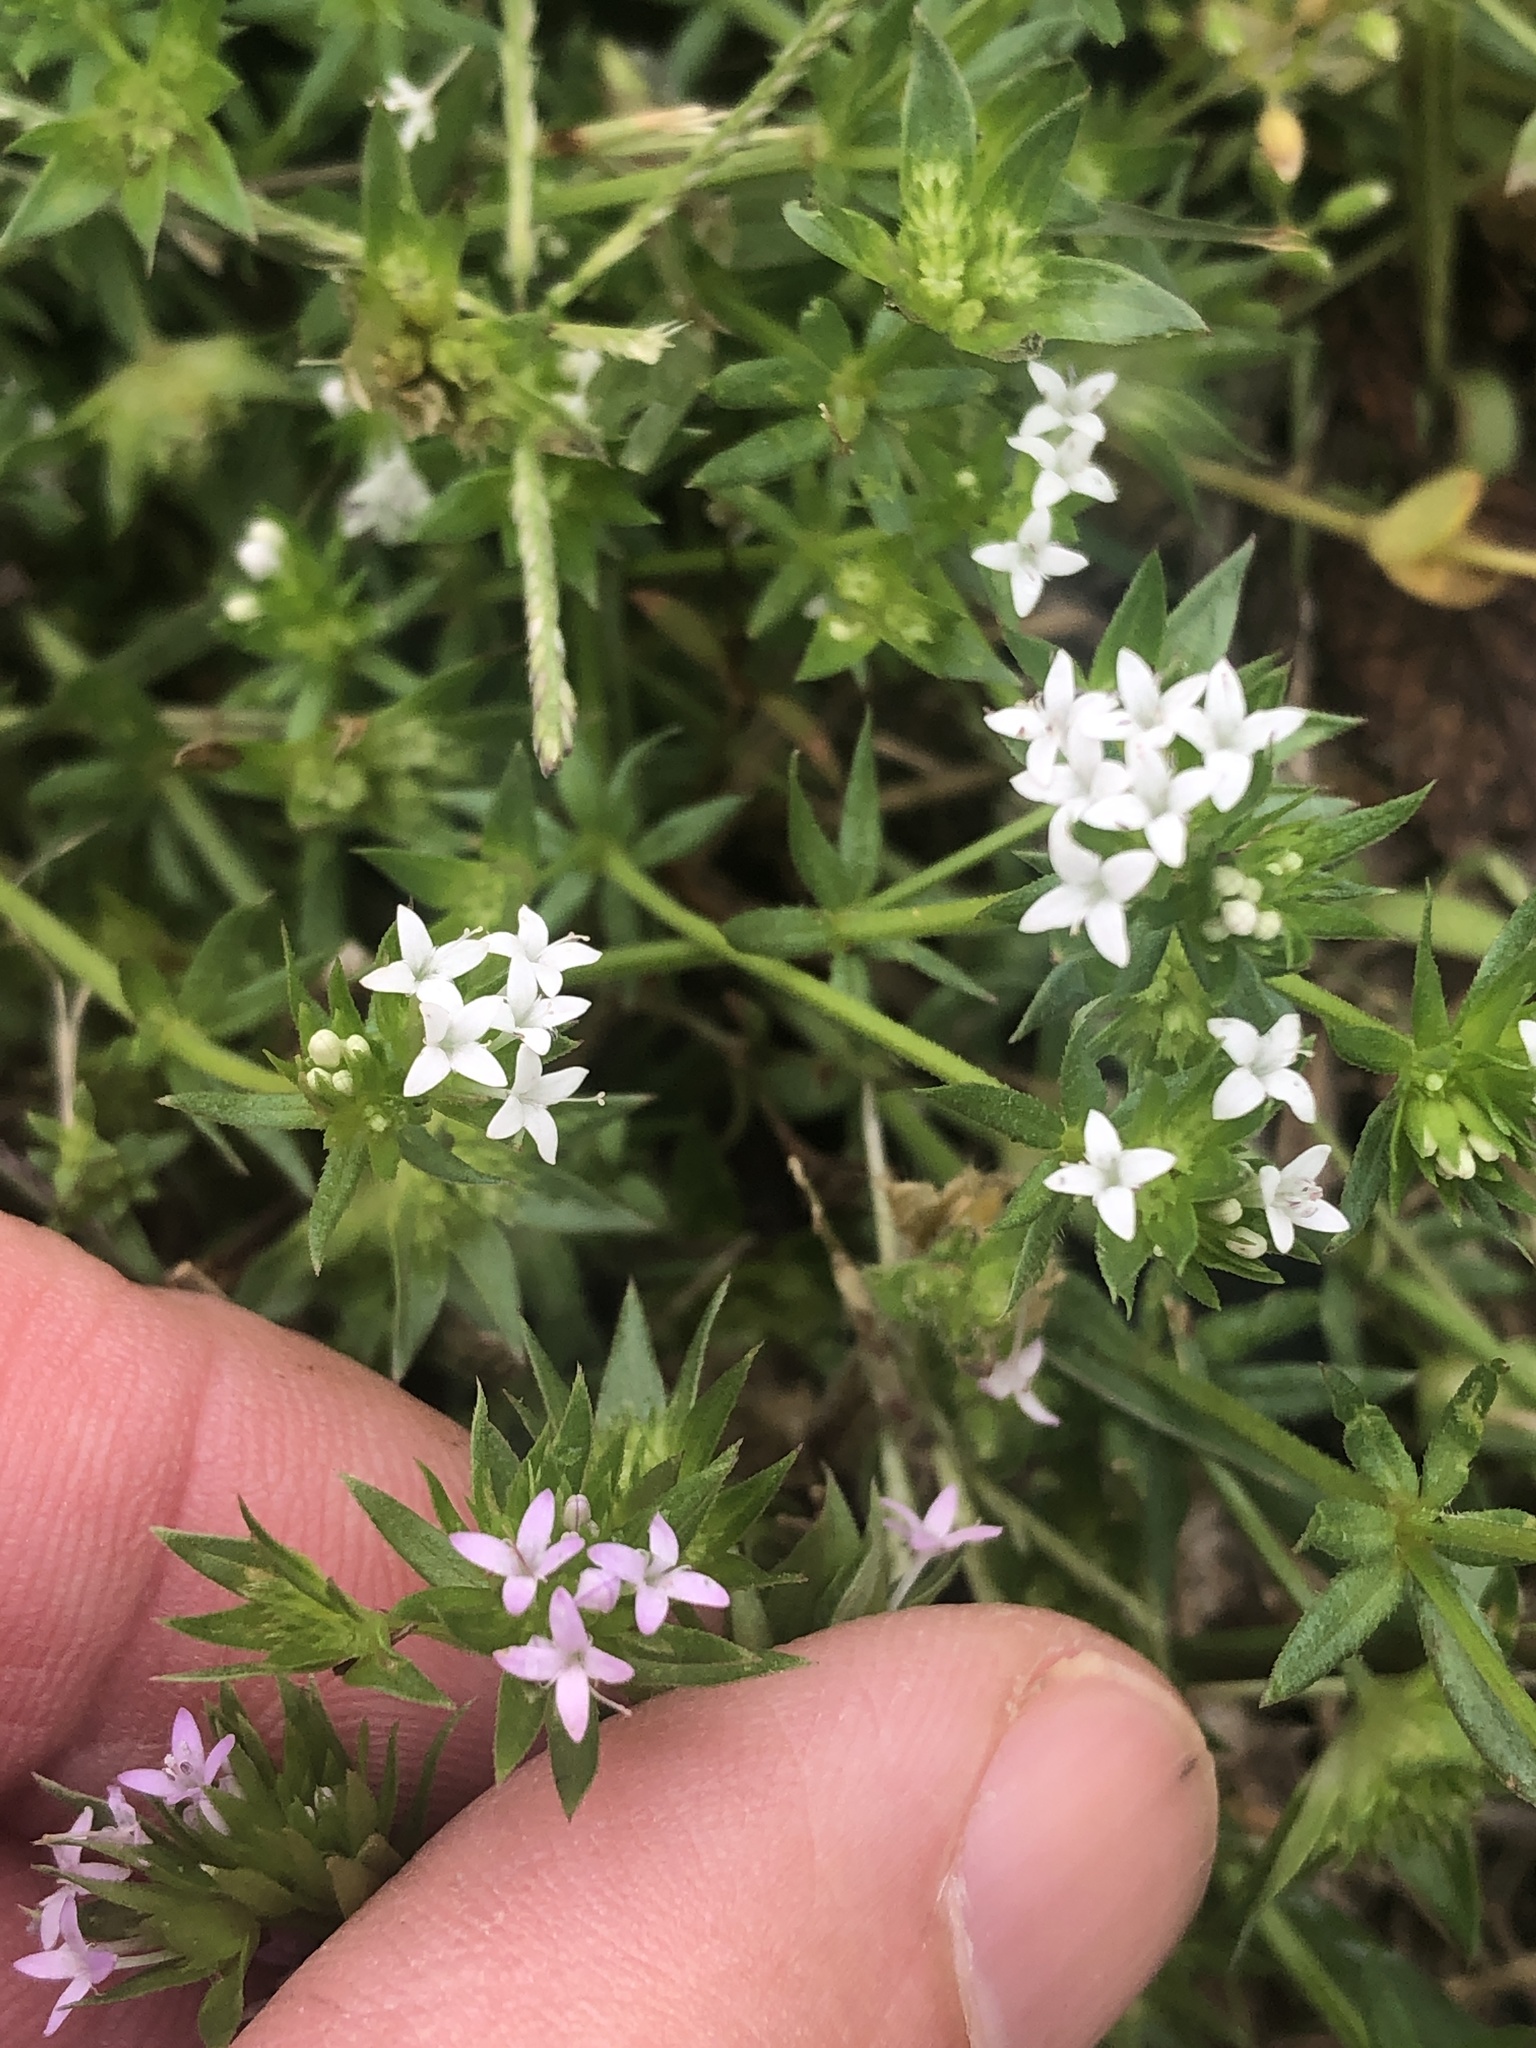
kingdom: Plantae
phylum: Tracheophyta
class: Magnoliopsida
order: Gentianales
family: Rubiaceae
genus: Sherardia
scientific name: Sherardia arvensis
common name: Field madder
